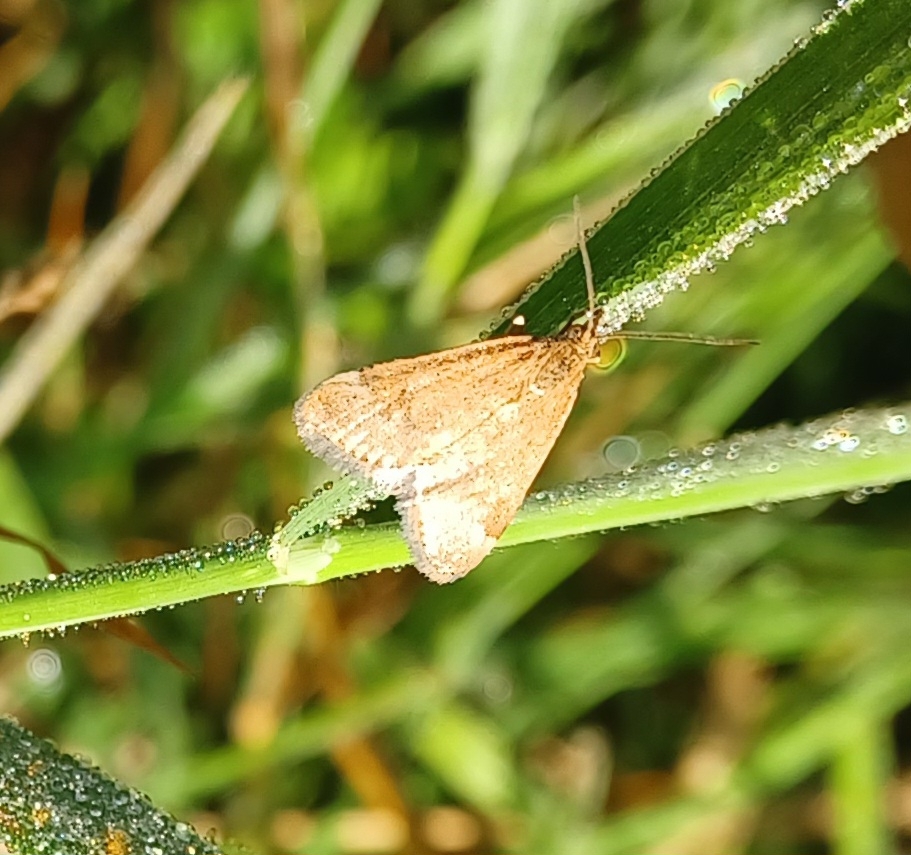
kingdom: Animalia
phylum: Arthropoda
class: Insecta
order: Lepidoptera
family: Crambidae
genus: Pyrausta
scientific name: Pyrausta despicata
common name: Straw-barred pearl
